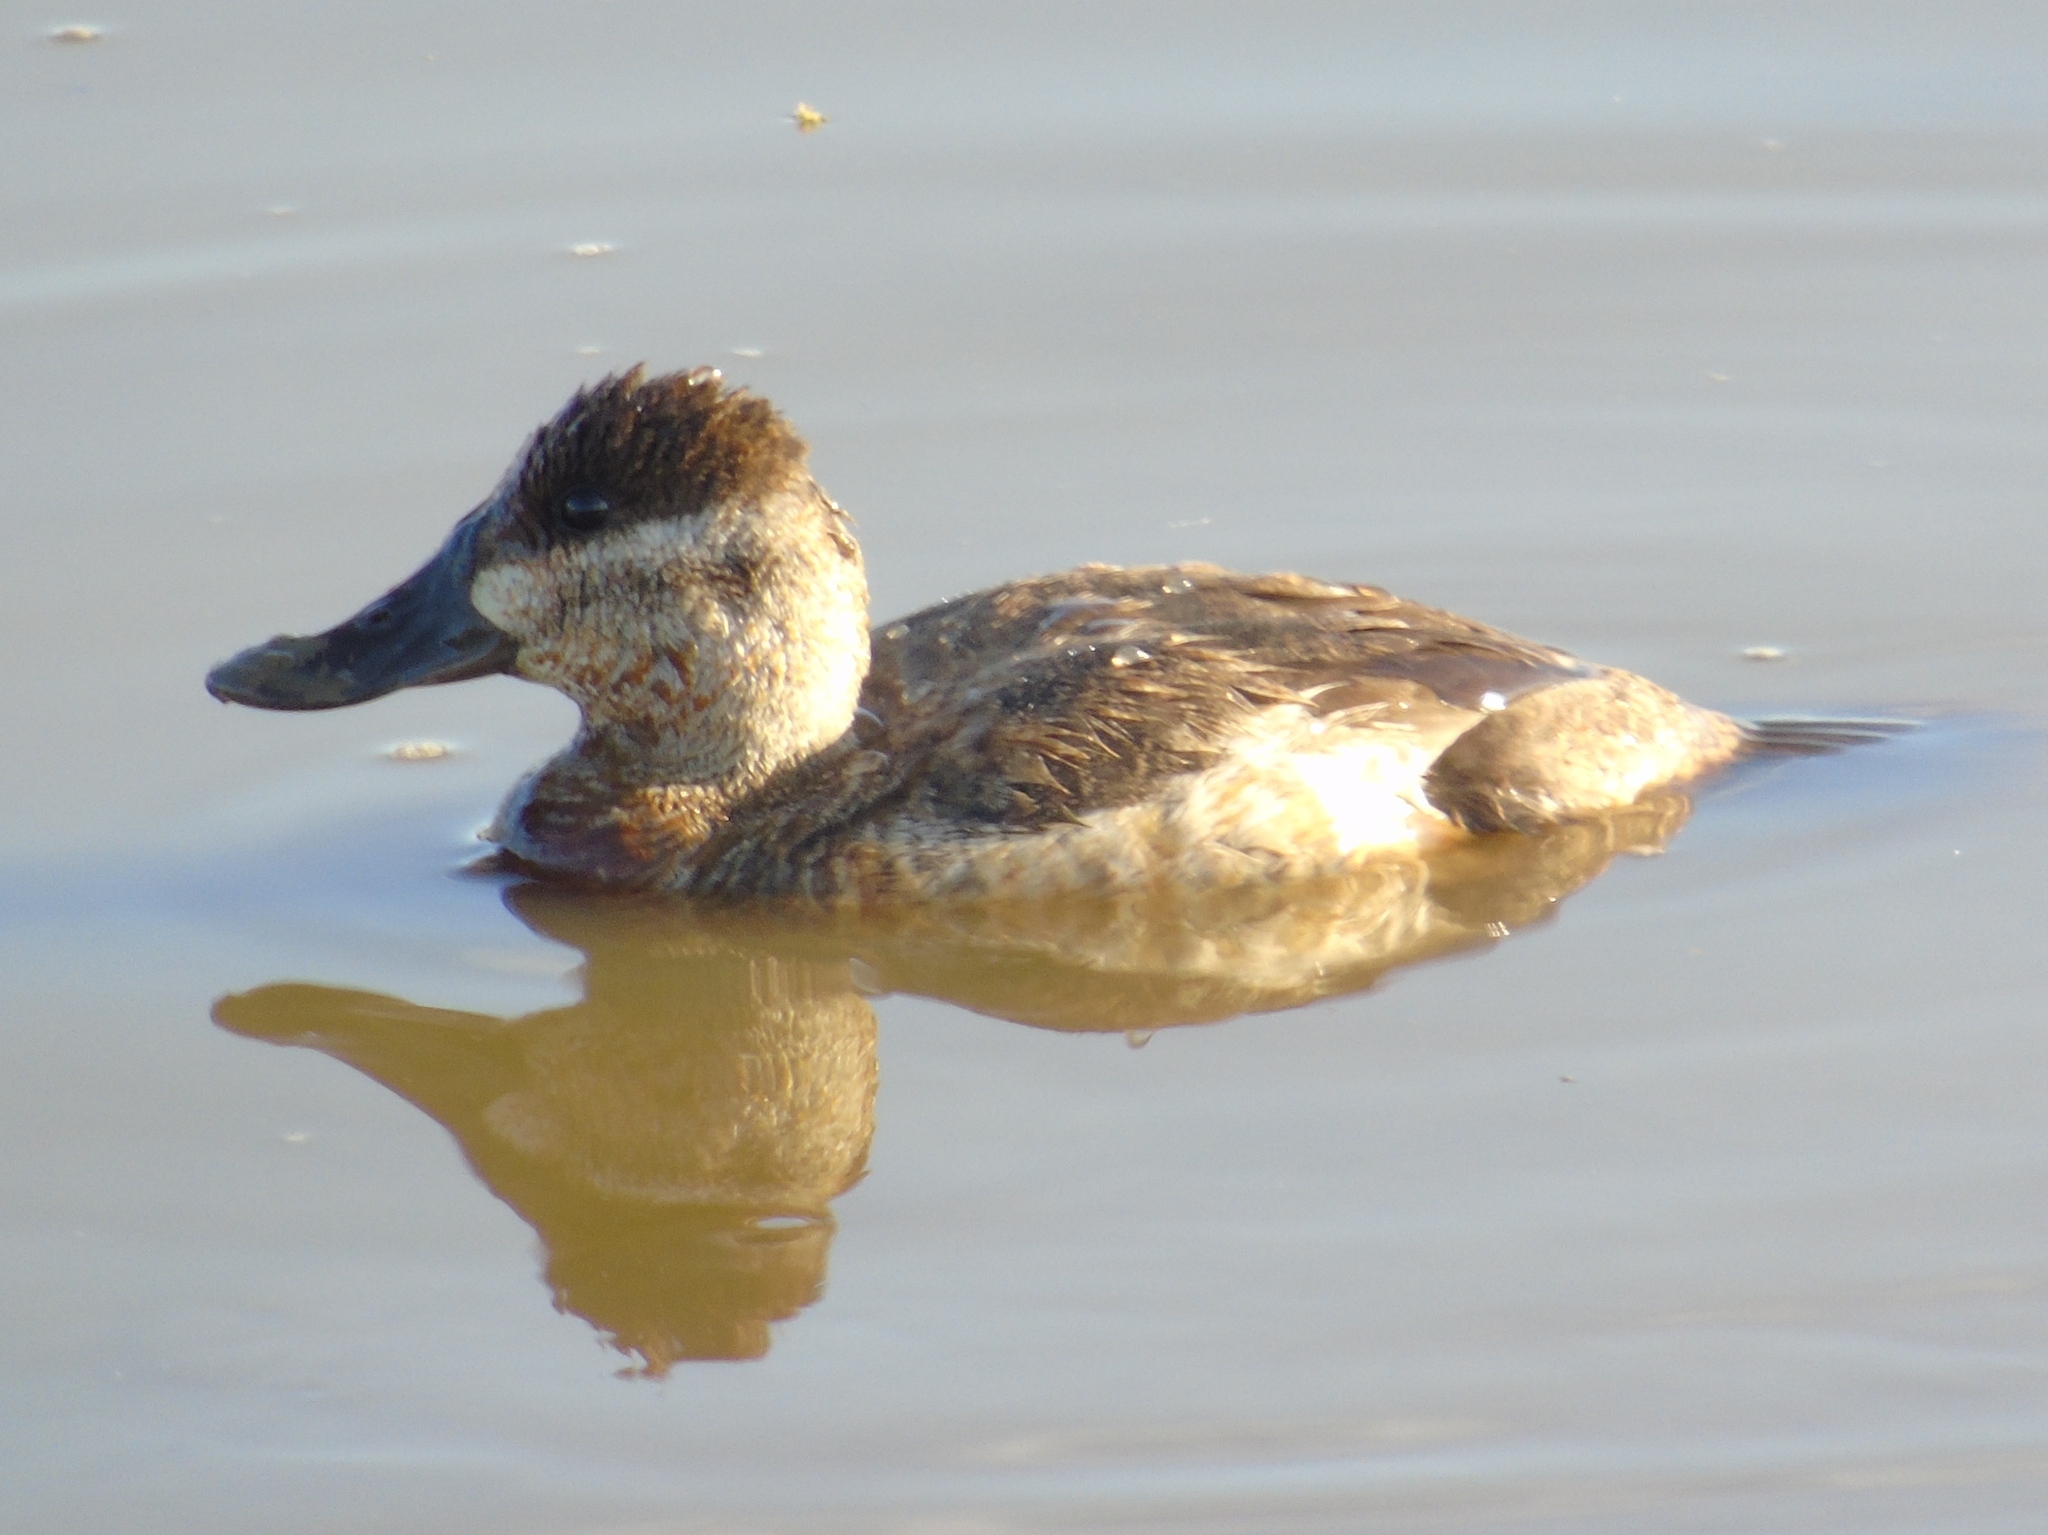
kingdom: Animalia
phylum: Chordata
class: Aves
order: Anseriformes
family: Anatidae
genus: Oxyura
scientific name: Oxyura jamaicensis
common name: Ruddy duck
